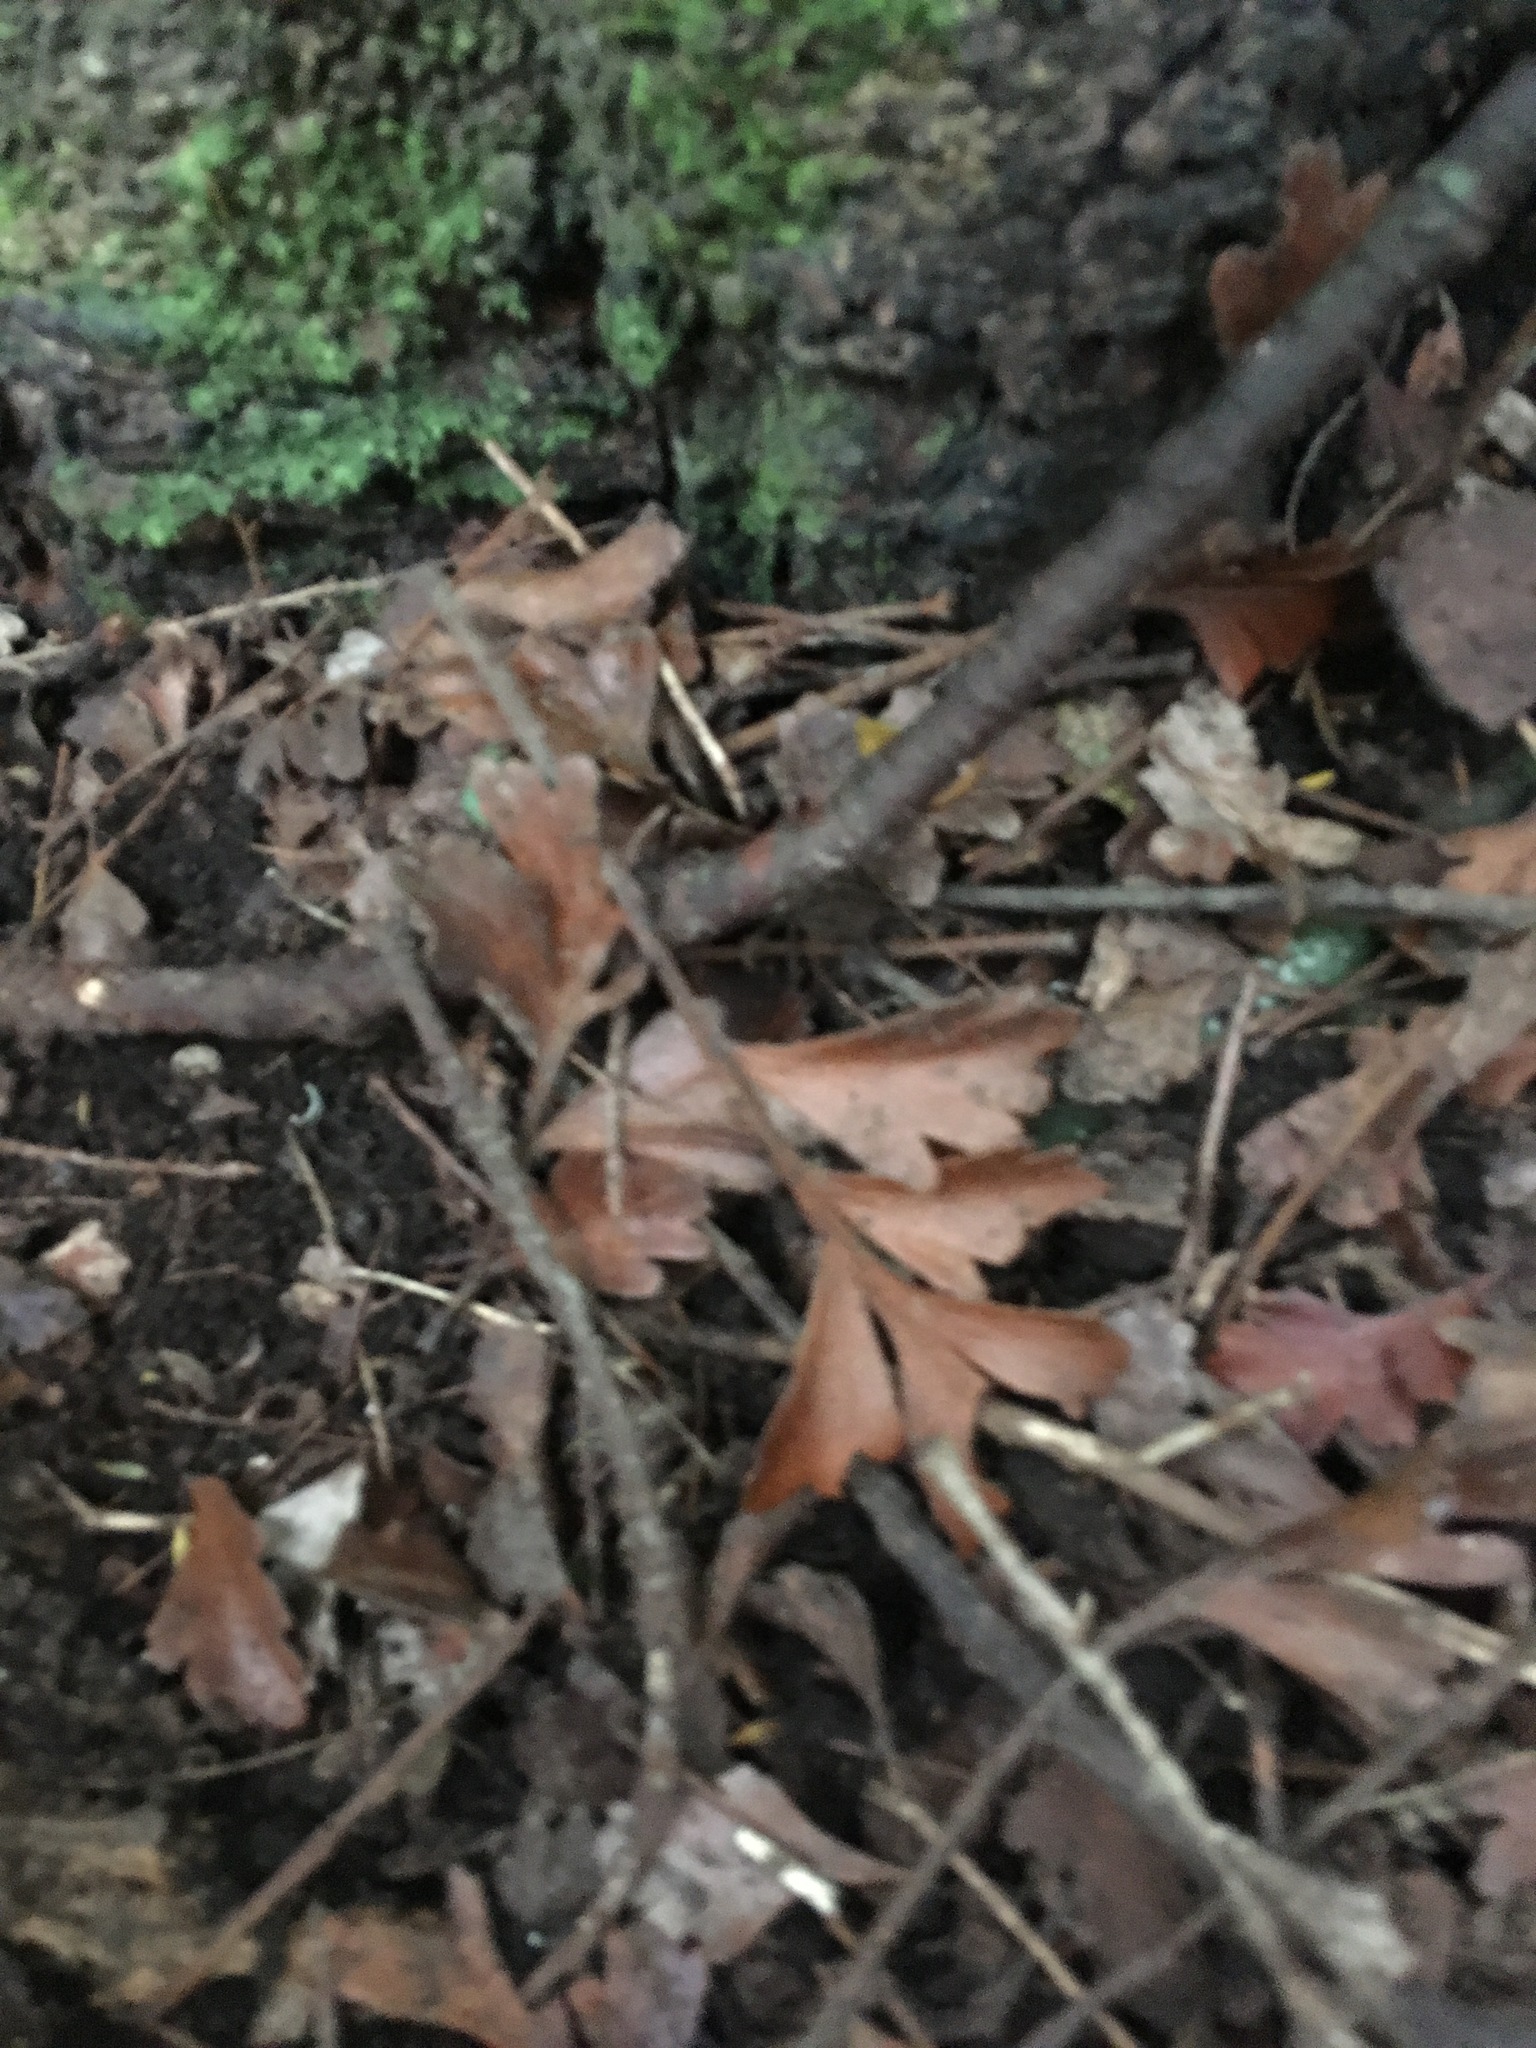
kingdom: Plantae
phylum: Tracheophyta
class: Pinopsida
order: Pinales
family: Phyllocladaceae
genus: Phyllocladus
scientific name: Phyllocladus trichomanoides
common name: Celery pine
